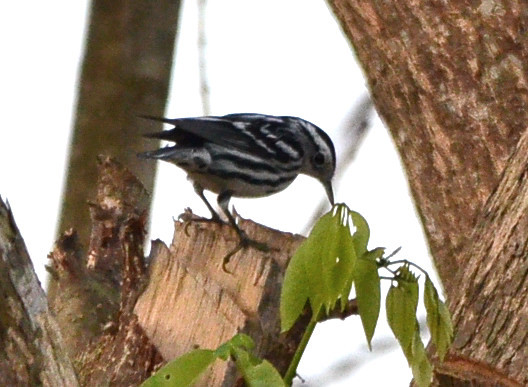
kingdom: Animalia
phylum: Chordata
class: Aves
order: Passeriformes
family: Parulidae
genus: Mniotilta
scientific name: Mniotilta varia
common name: Black-and-white warbler
